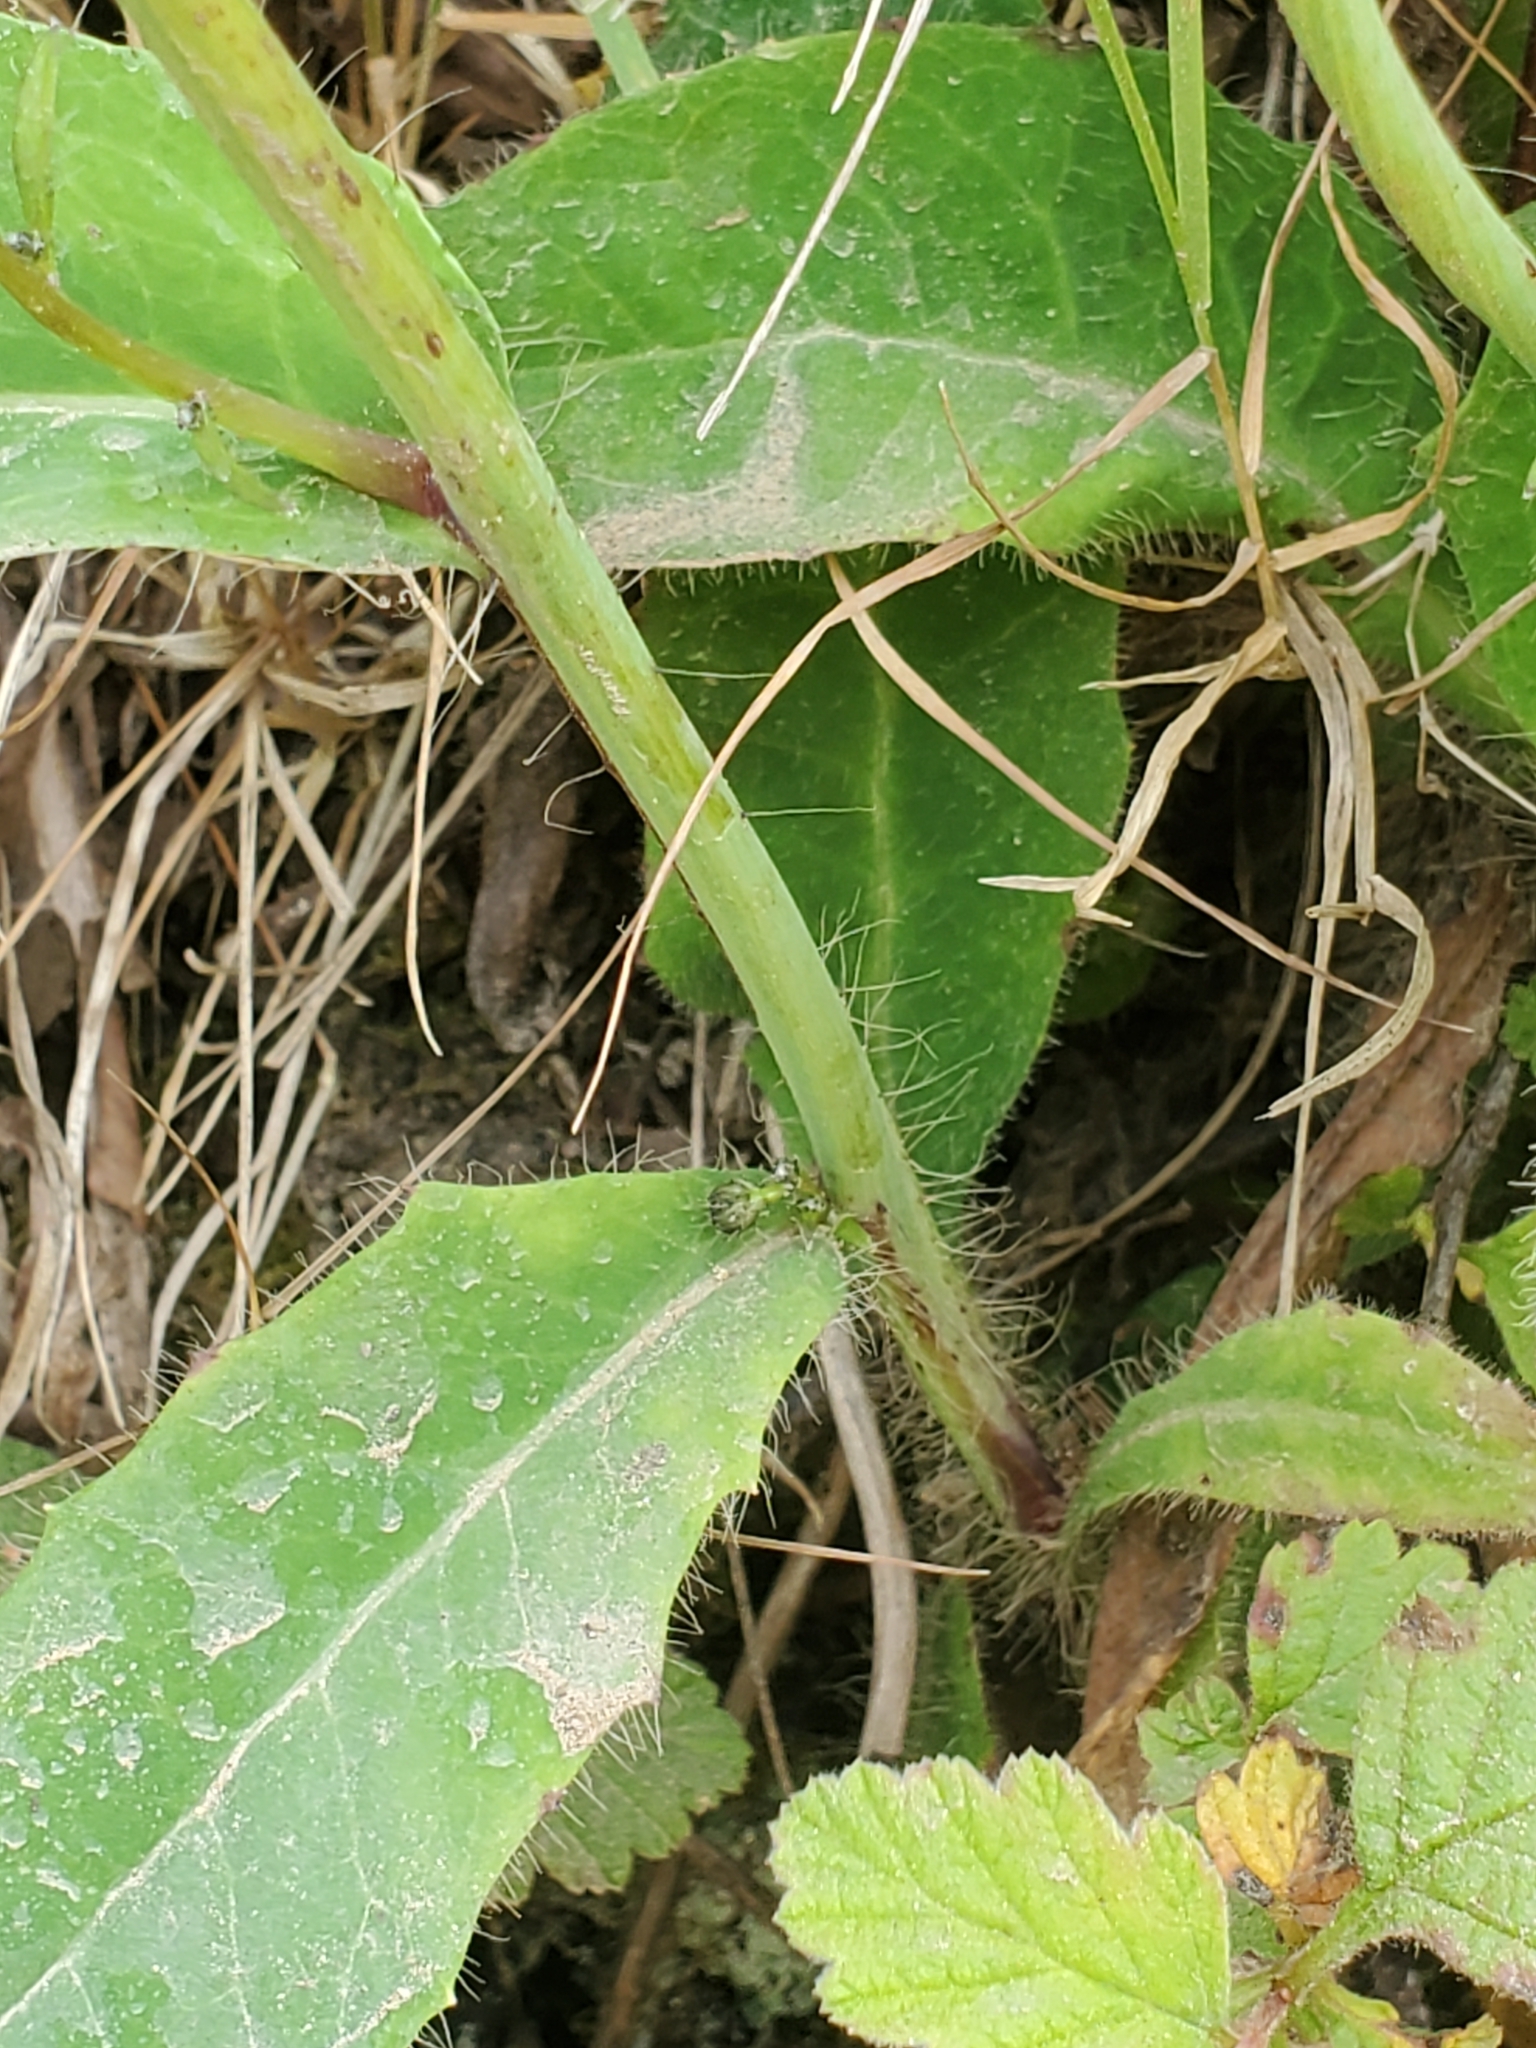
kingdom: Plantae
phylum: Tracheophyta
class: Magnoliopsida
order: Asterales
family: Asteraceae
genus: Hieracium
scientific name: Hieracium albiflorum
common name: White hawkweed
